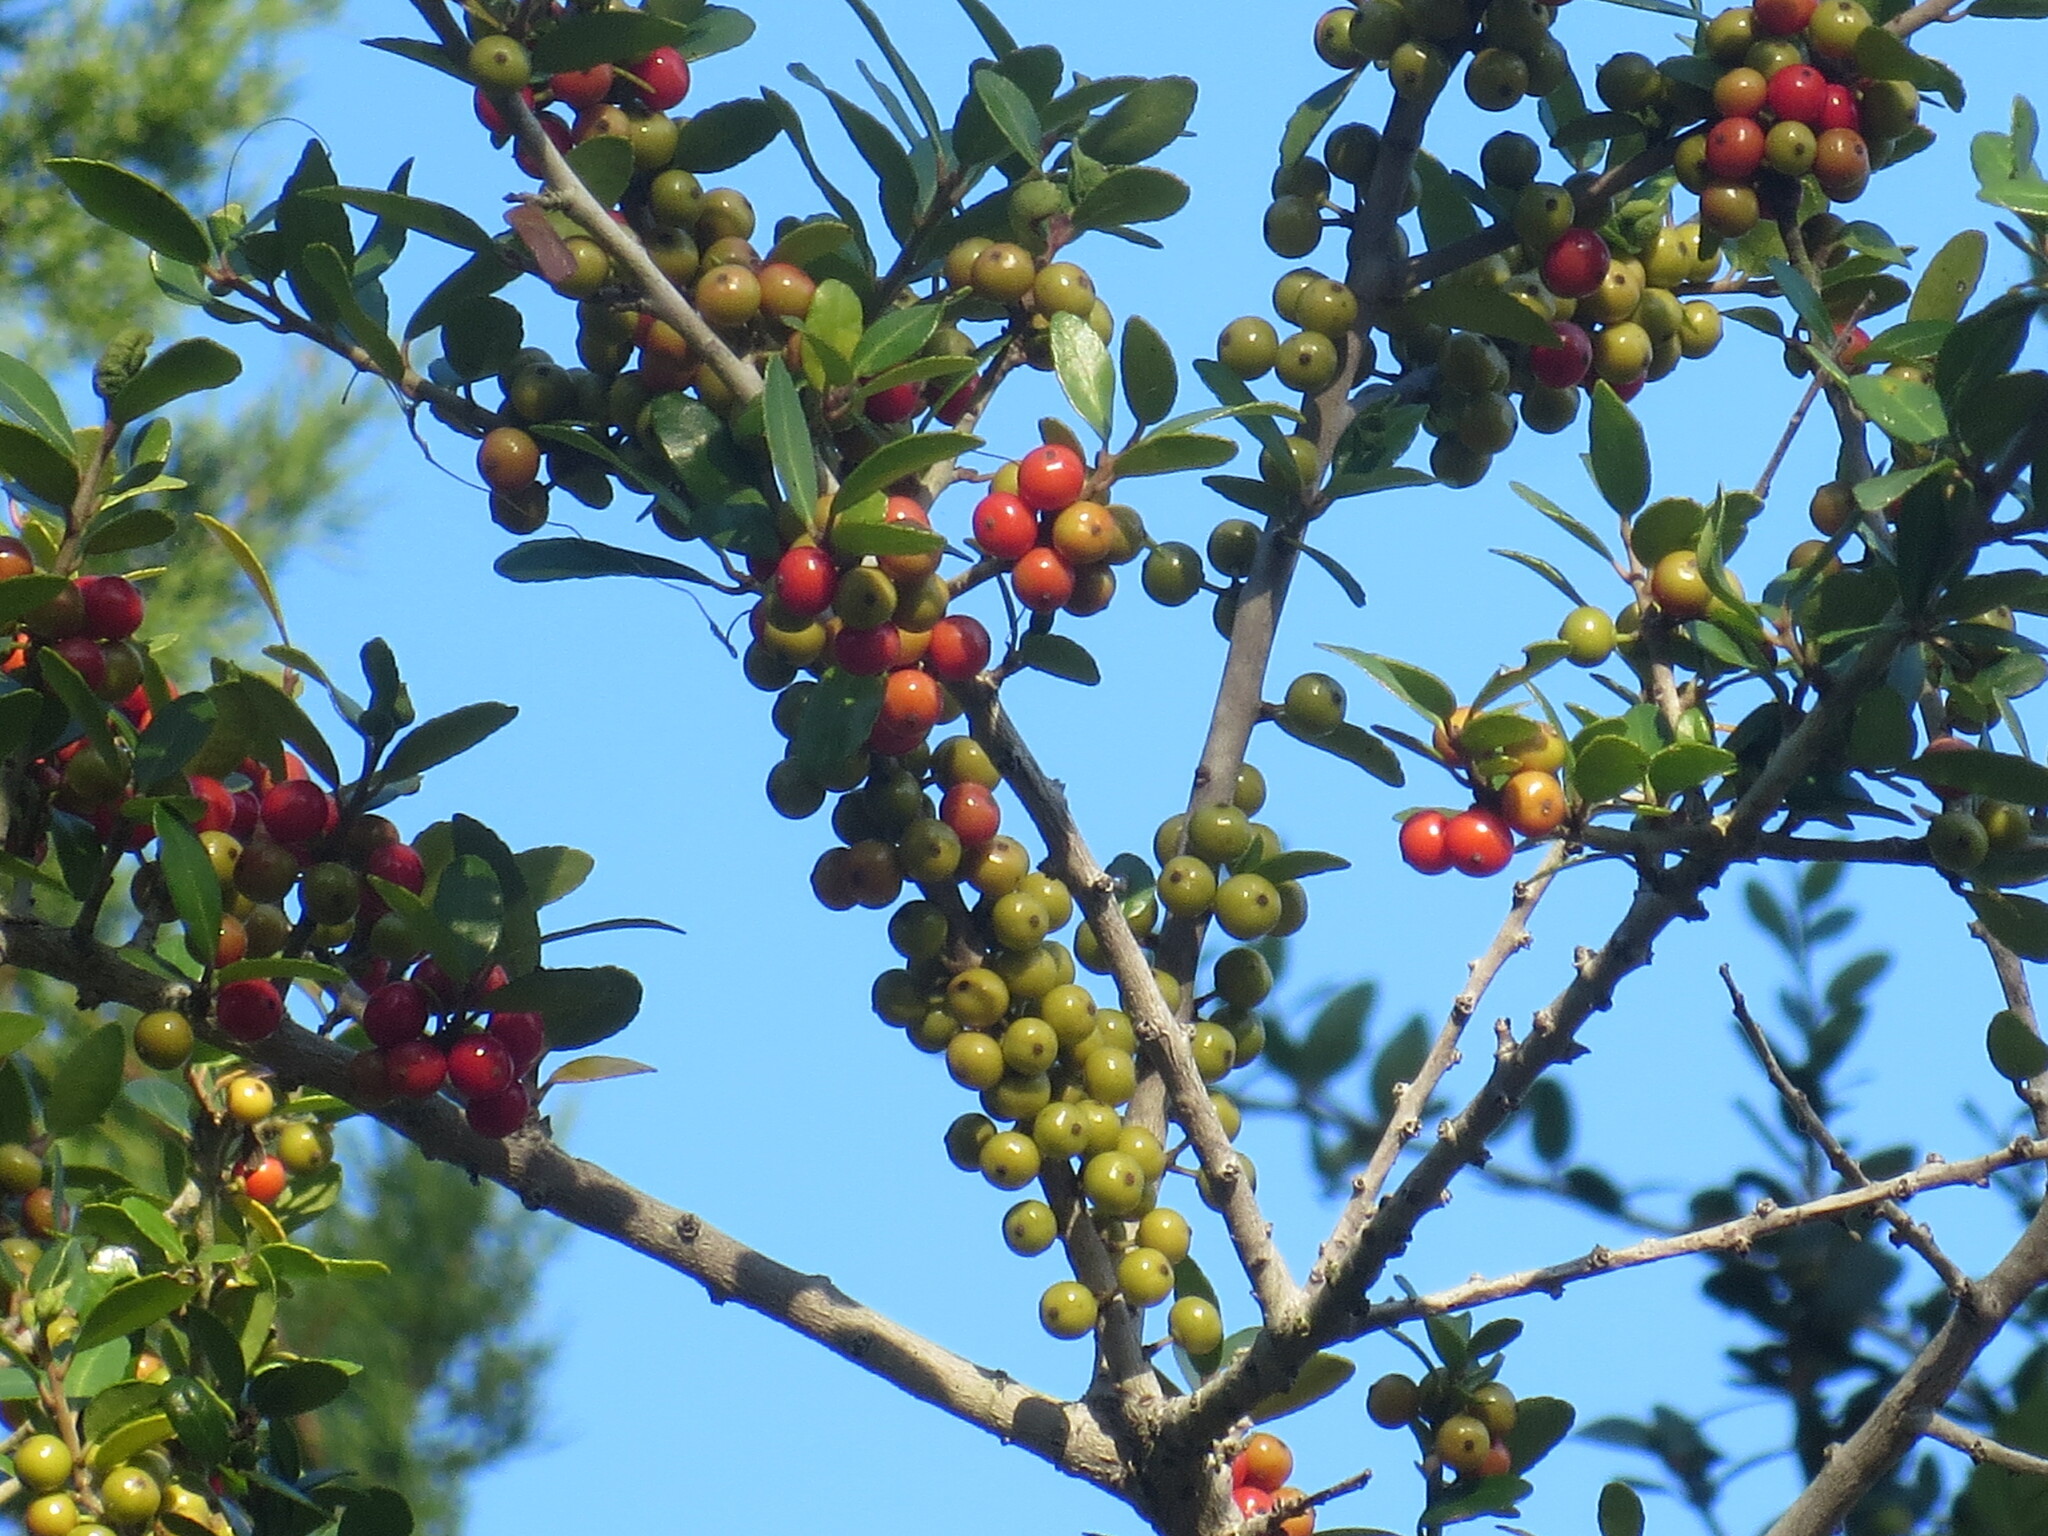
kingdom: Plantae
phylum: Tracheophyta
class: Magnoliopsida
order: Aquifoliales
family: Aquifoliaceae
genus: Ilex
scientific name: Ilex vomitoria
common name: Yaupon holly
